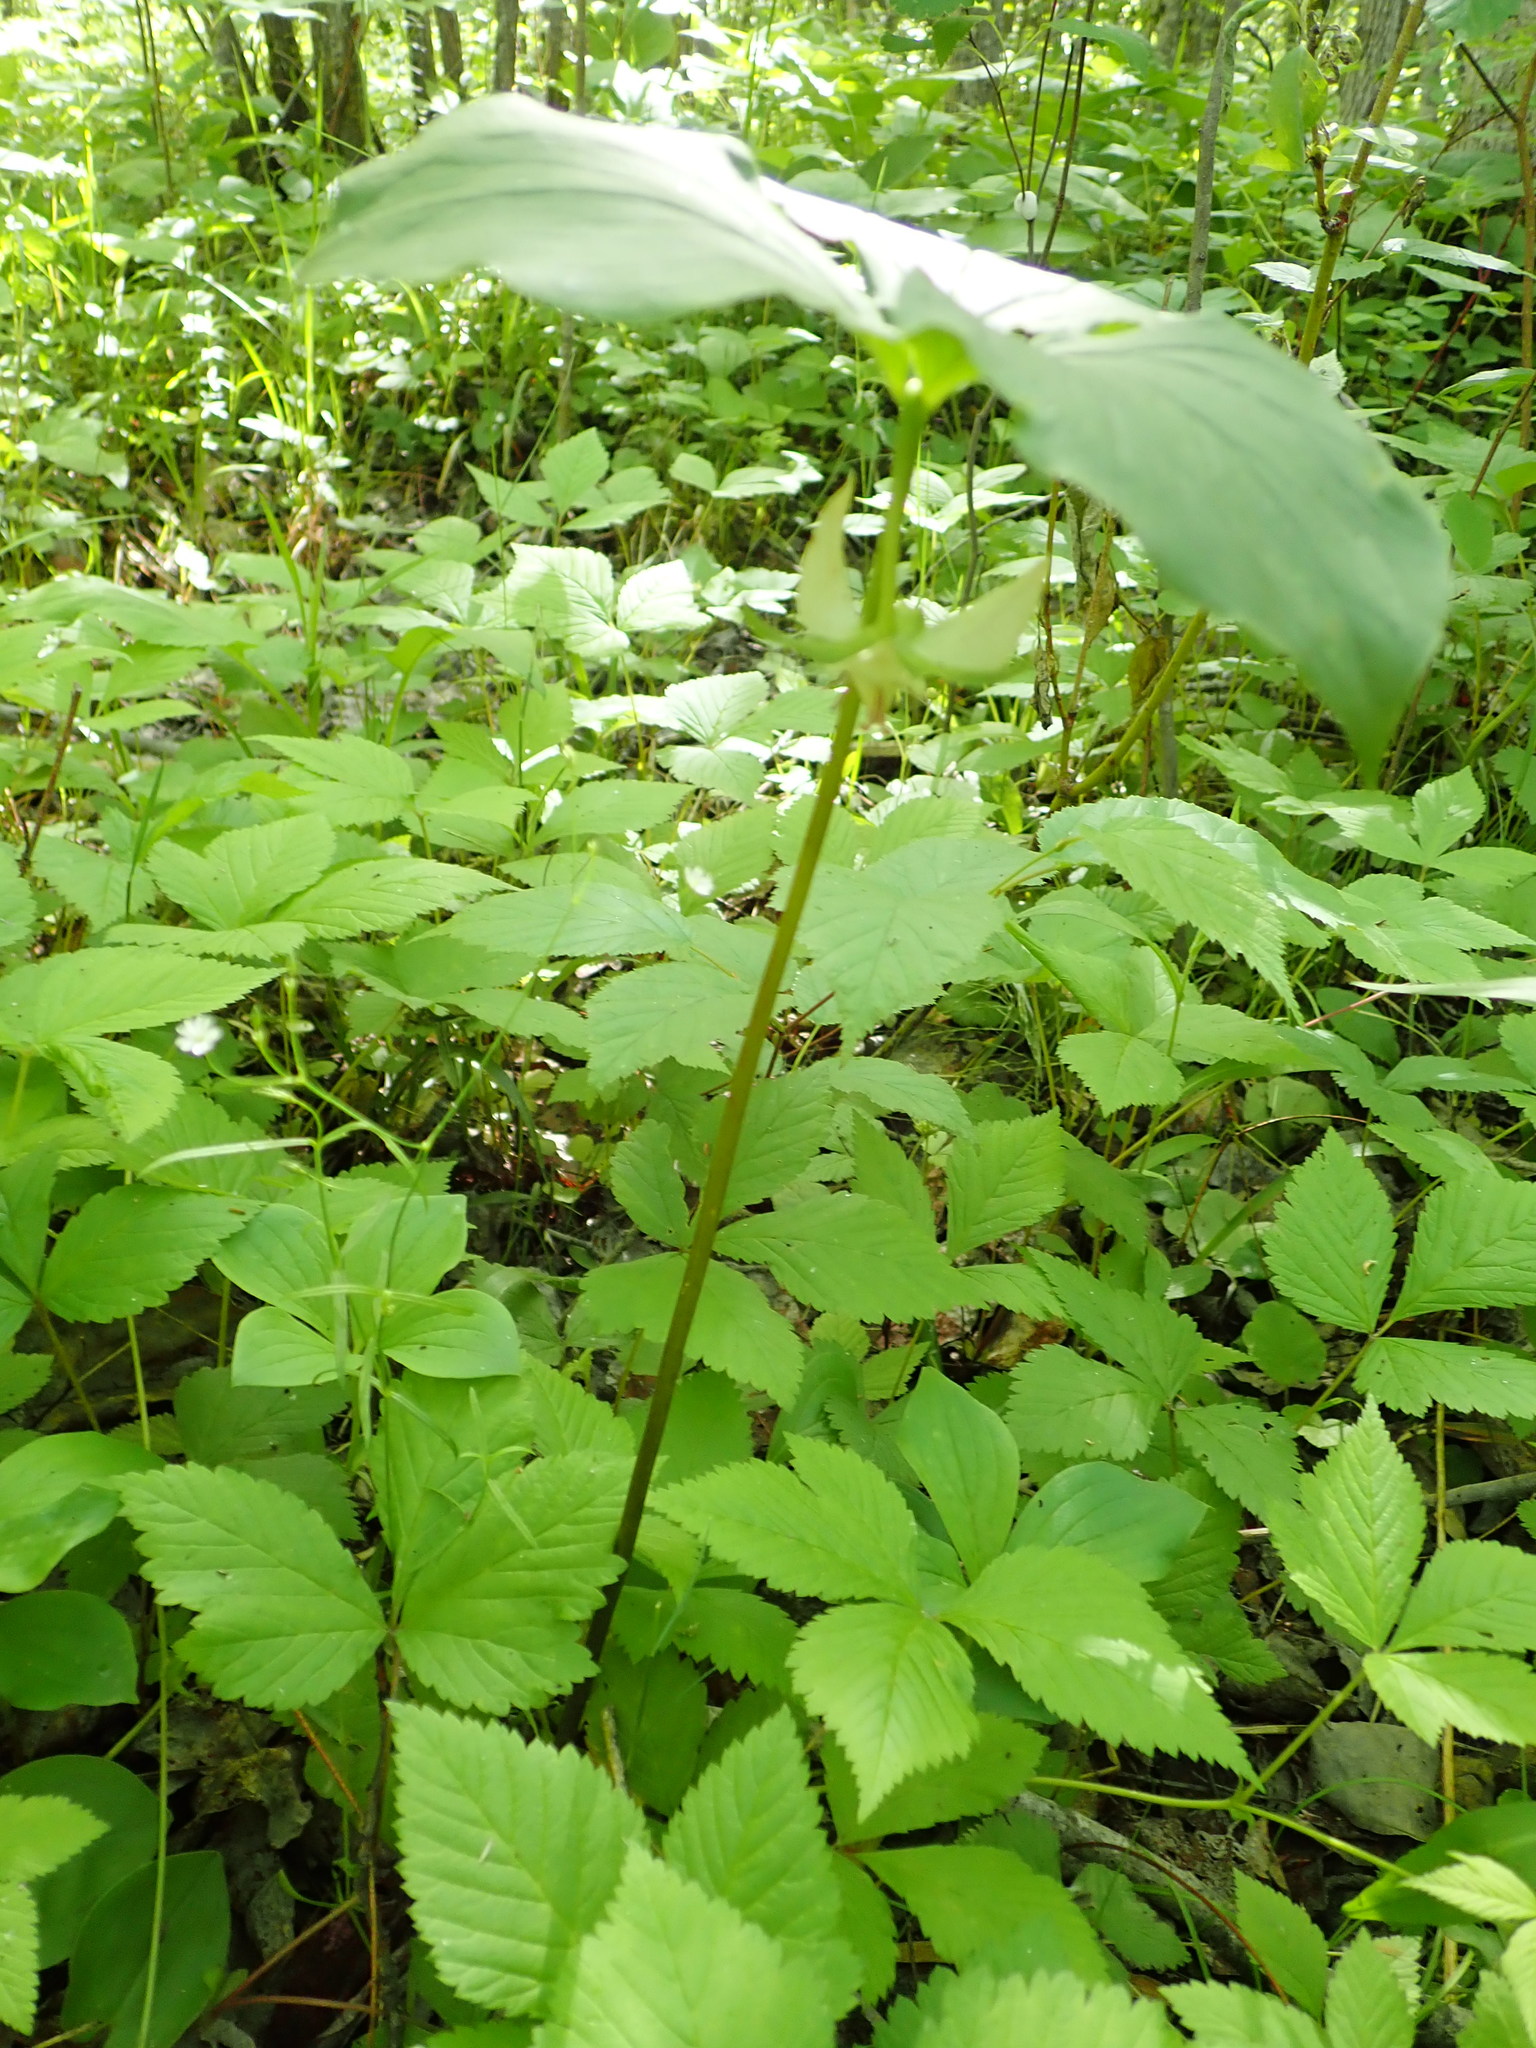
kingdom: Plantae
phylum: Tracheophyta
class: Liliopsida
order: Liliales
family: Melanthiaceae
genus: Trillium
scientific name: Trillium cernuum
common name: Nodding trillium
